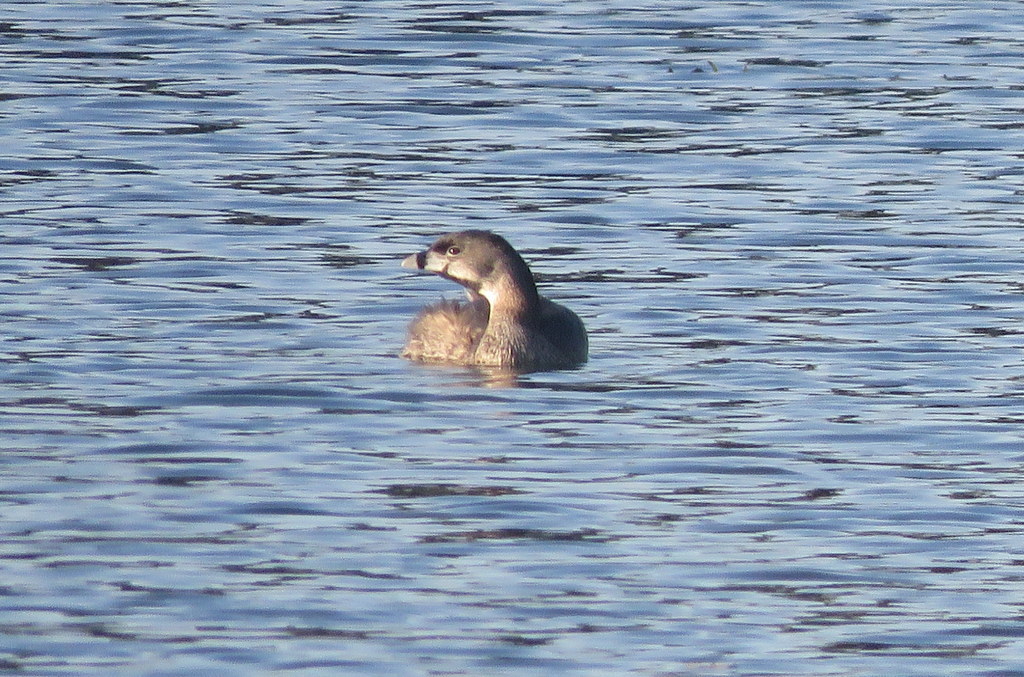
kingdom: Animalia
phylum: Chordata
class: Aves
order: Podicipediformes
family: Podicipedidae
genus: Podilymbus
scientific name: Podilymbus podiceps
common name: Pied-billed grebe
